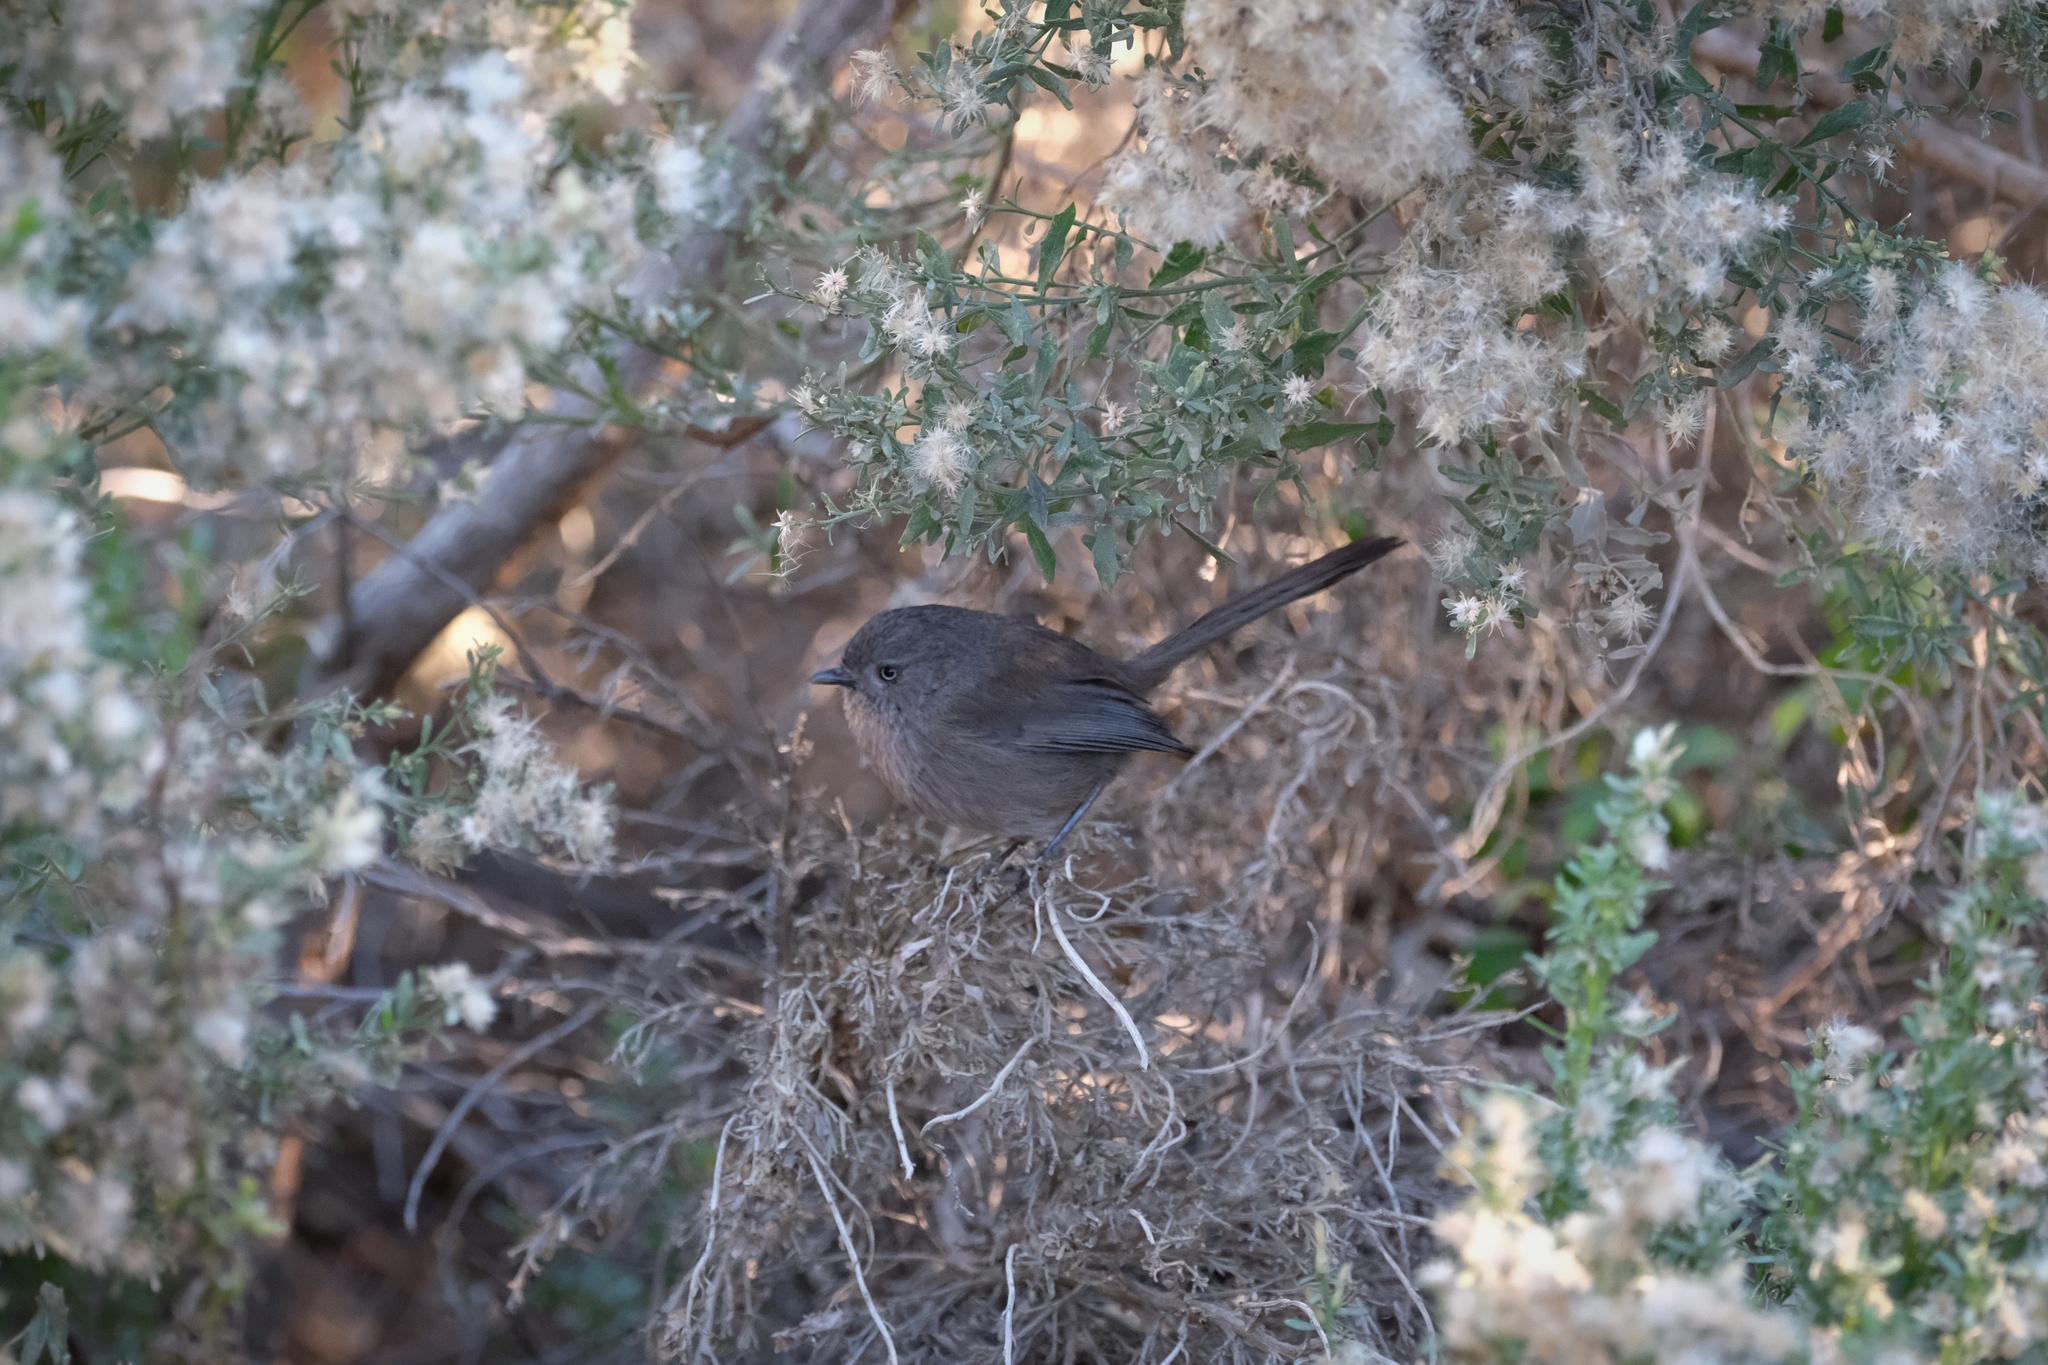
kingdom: Animalia
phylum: Chordata
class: Aves
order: Passeriformes
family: Sylviidae
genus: Chamaea
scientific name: Chamaea fasciata
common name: Wrentit
